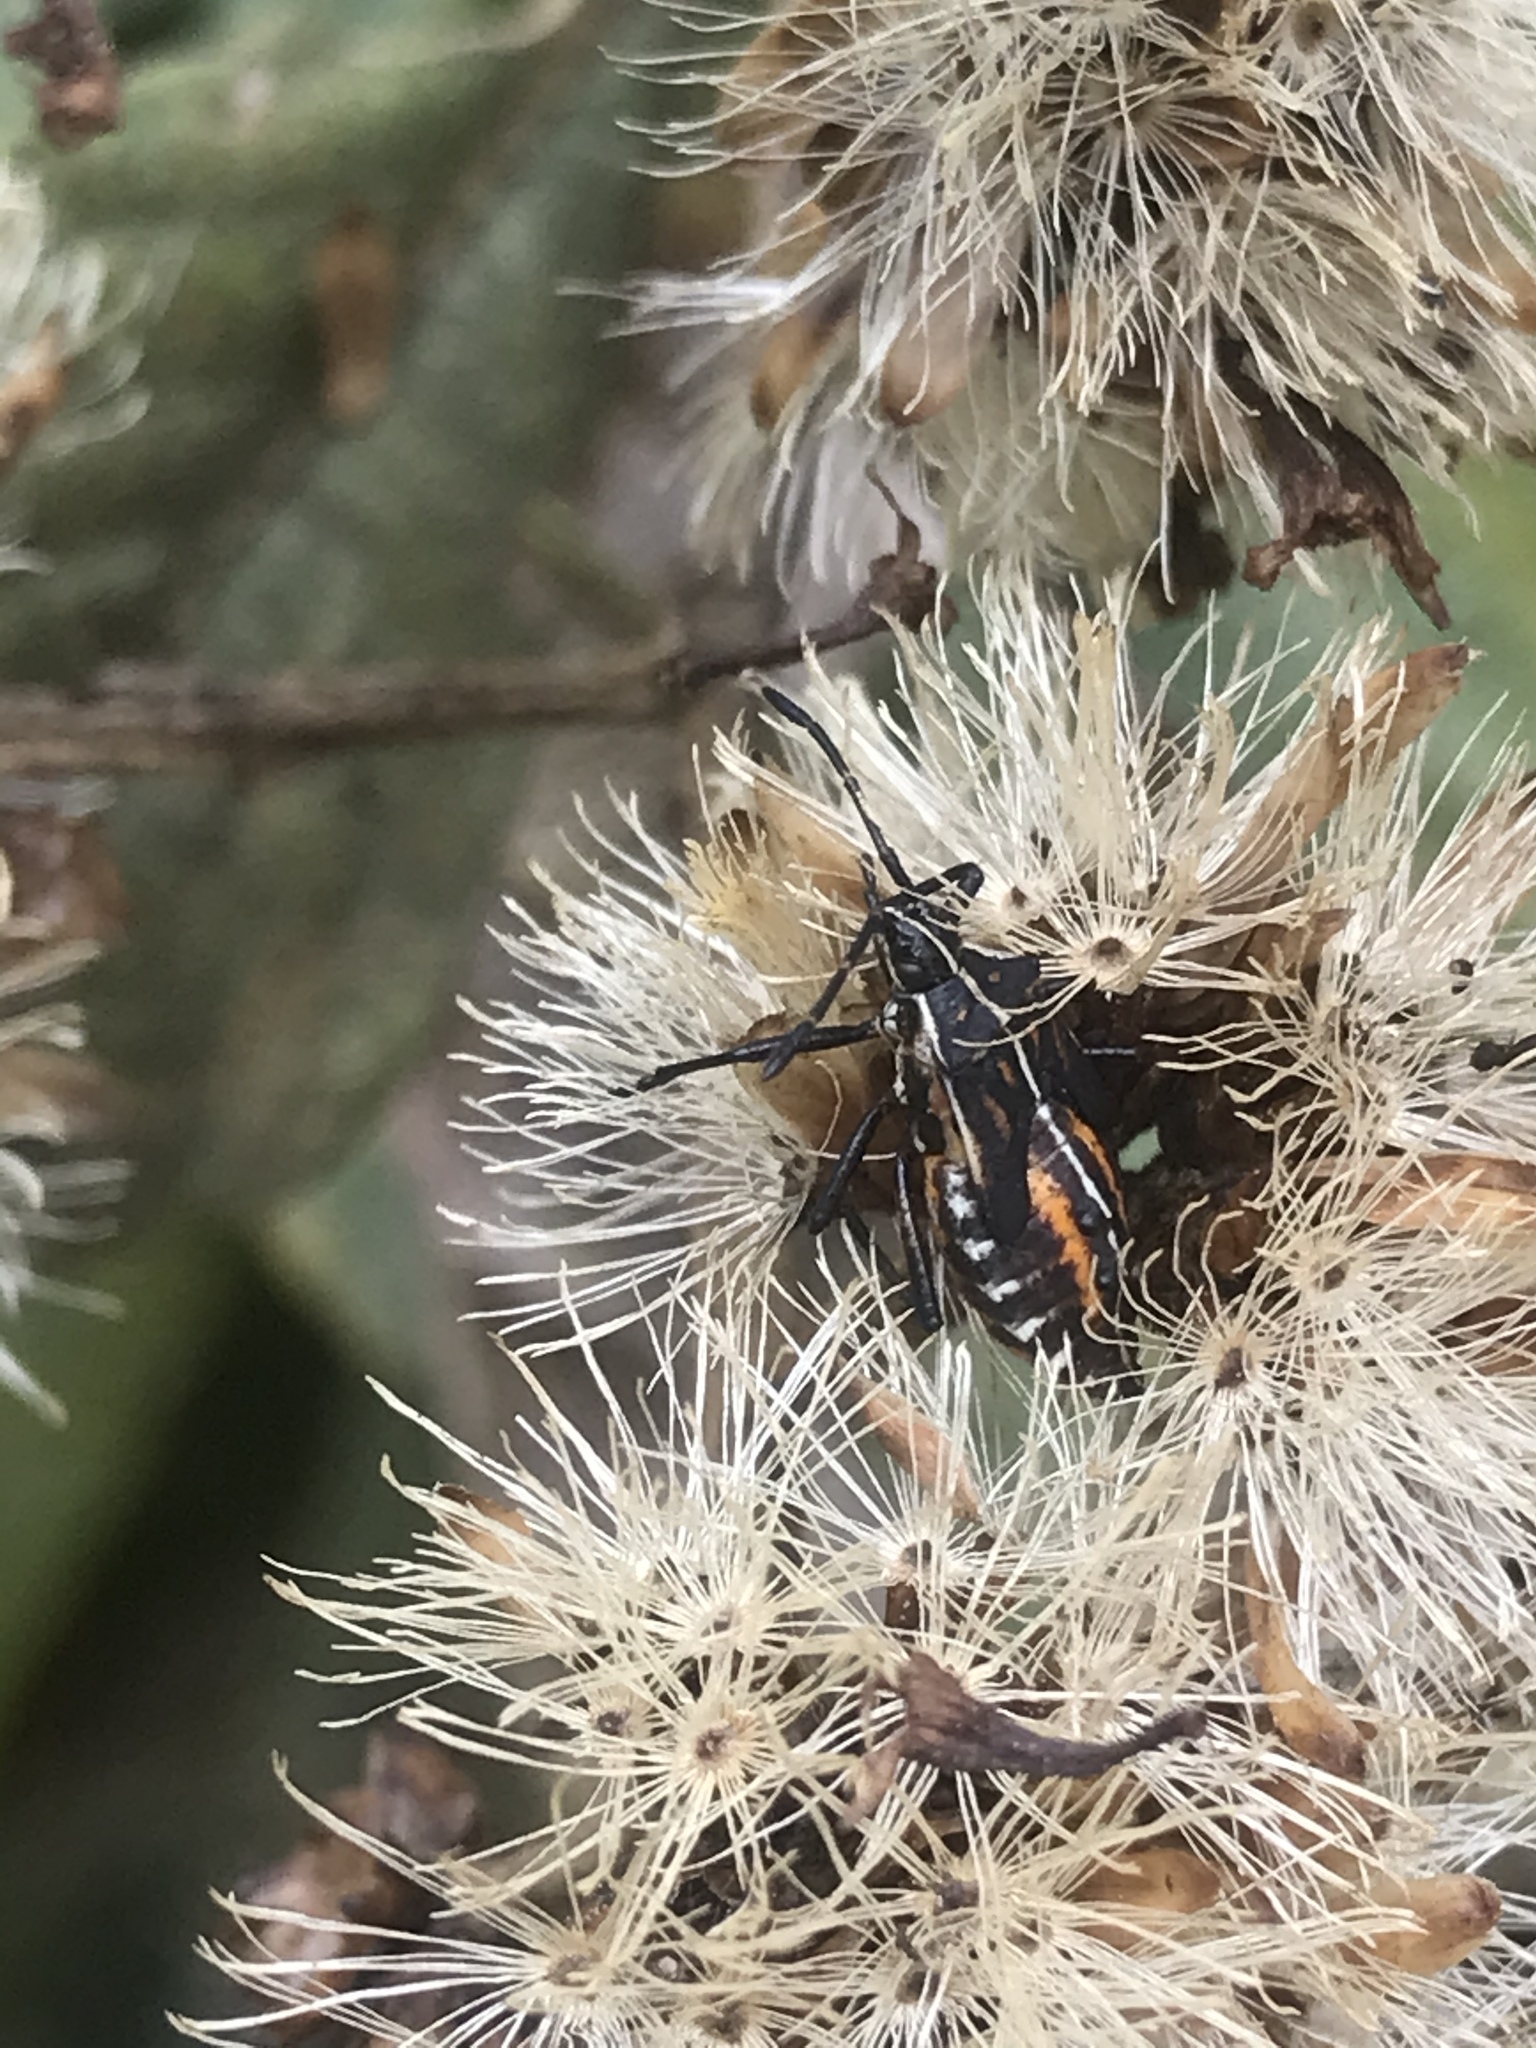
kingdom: Animalia
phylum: Arthropoda
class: Insecta
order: Hemiptera
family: Coreidae
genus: Althos
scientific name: Althos pericarti
